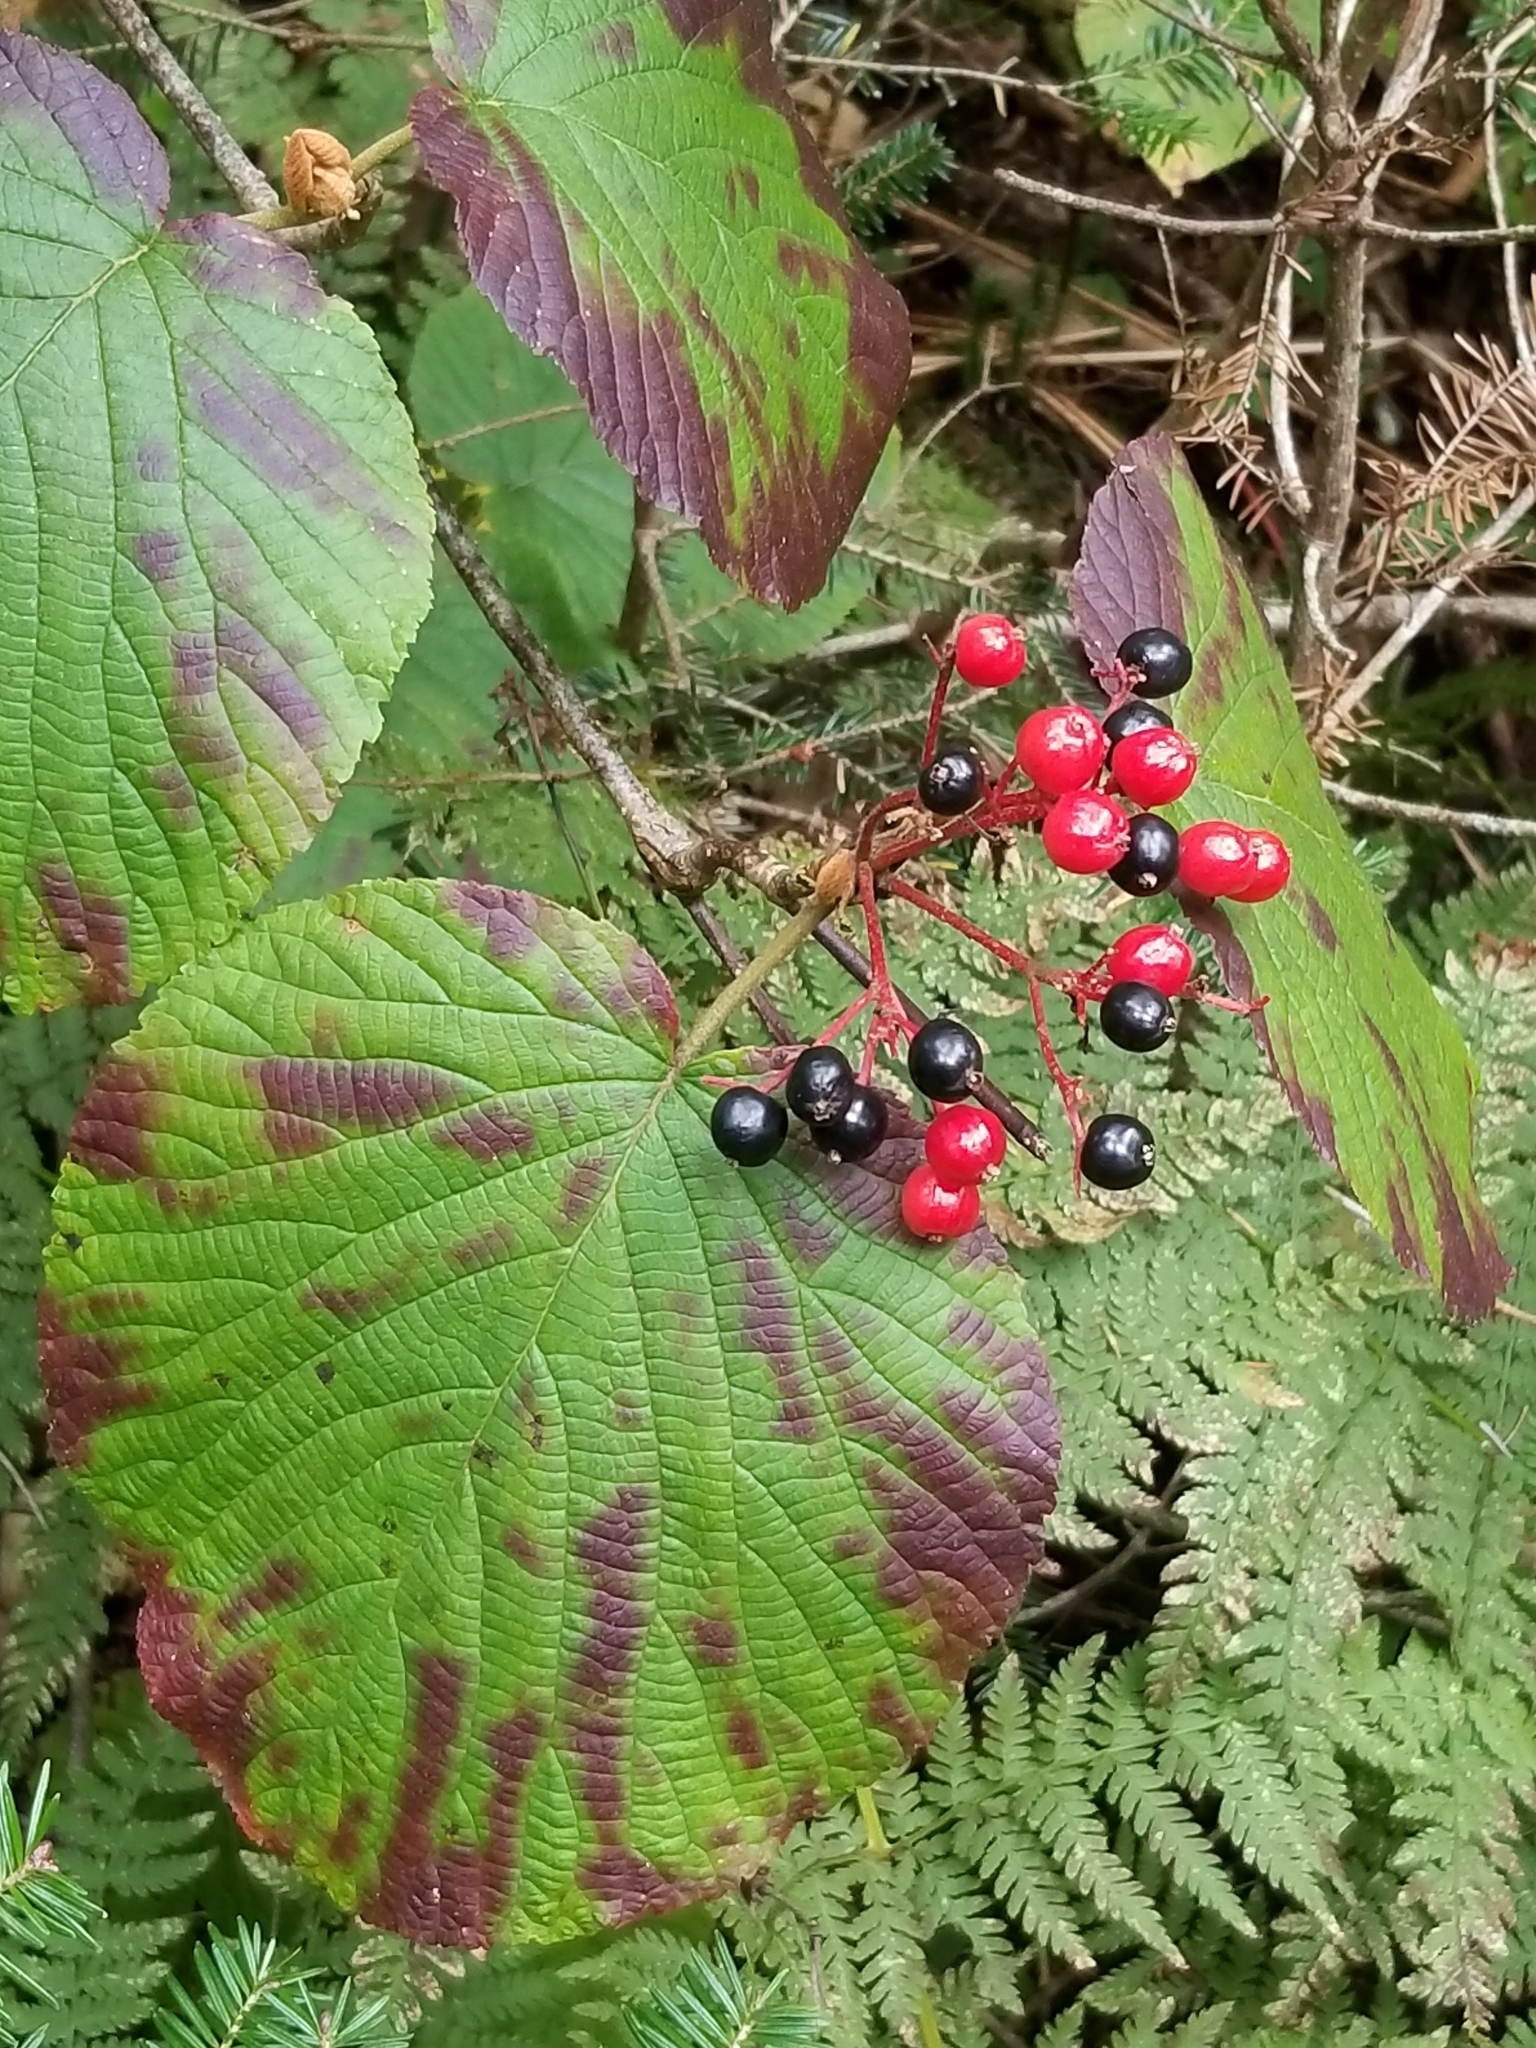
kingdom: Plantae
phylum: Tracheophyta
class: Magnoliopsida
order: Dipsacales
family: Viburnaceae
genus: Viburnum
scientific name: Viburnum lantanoides
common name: Hobblebush
